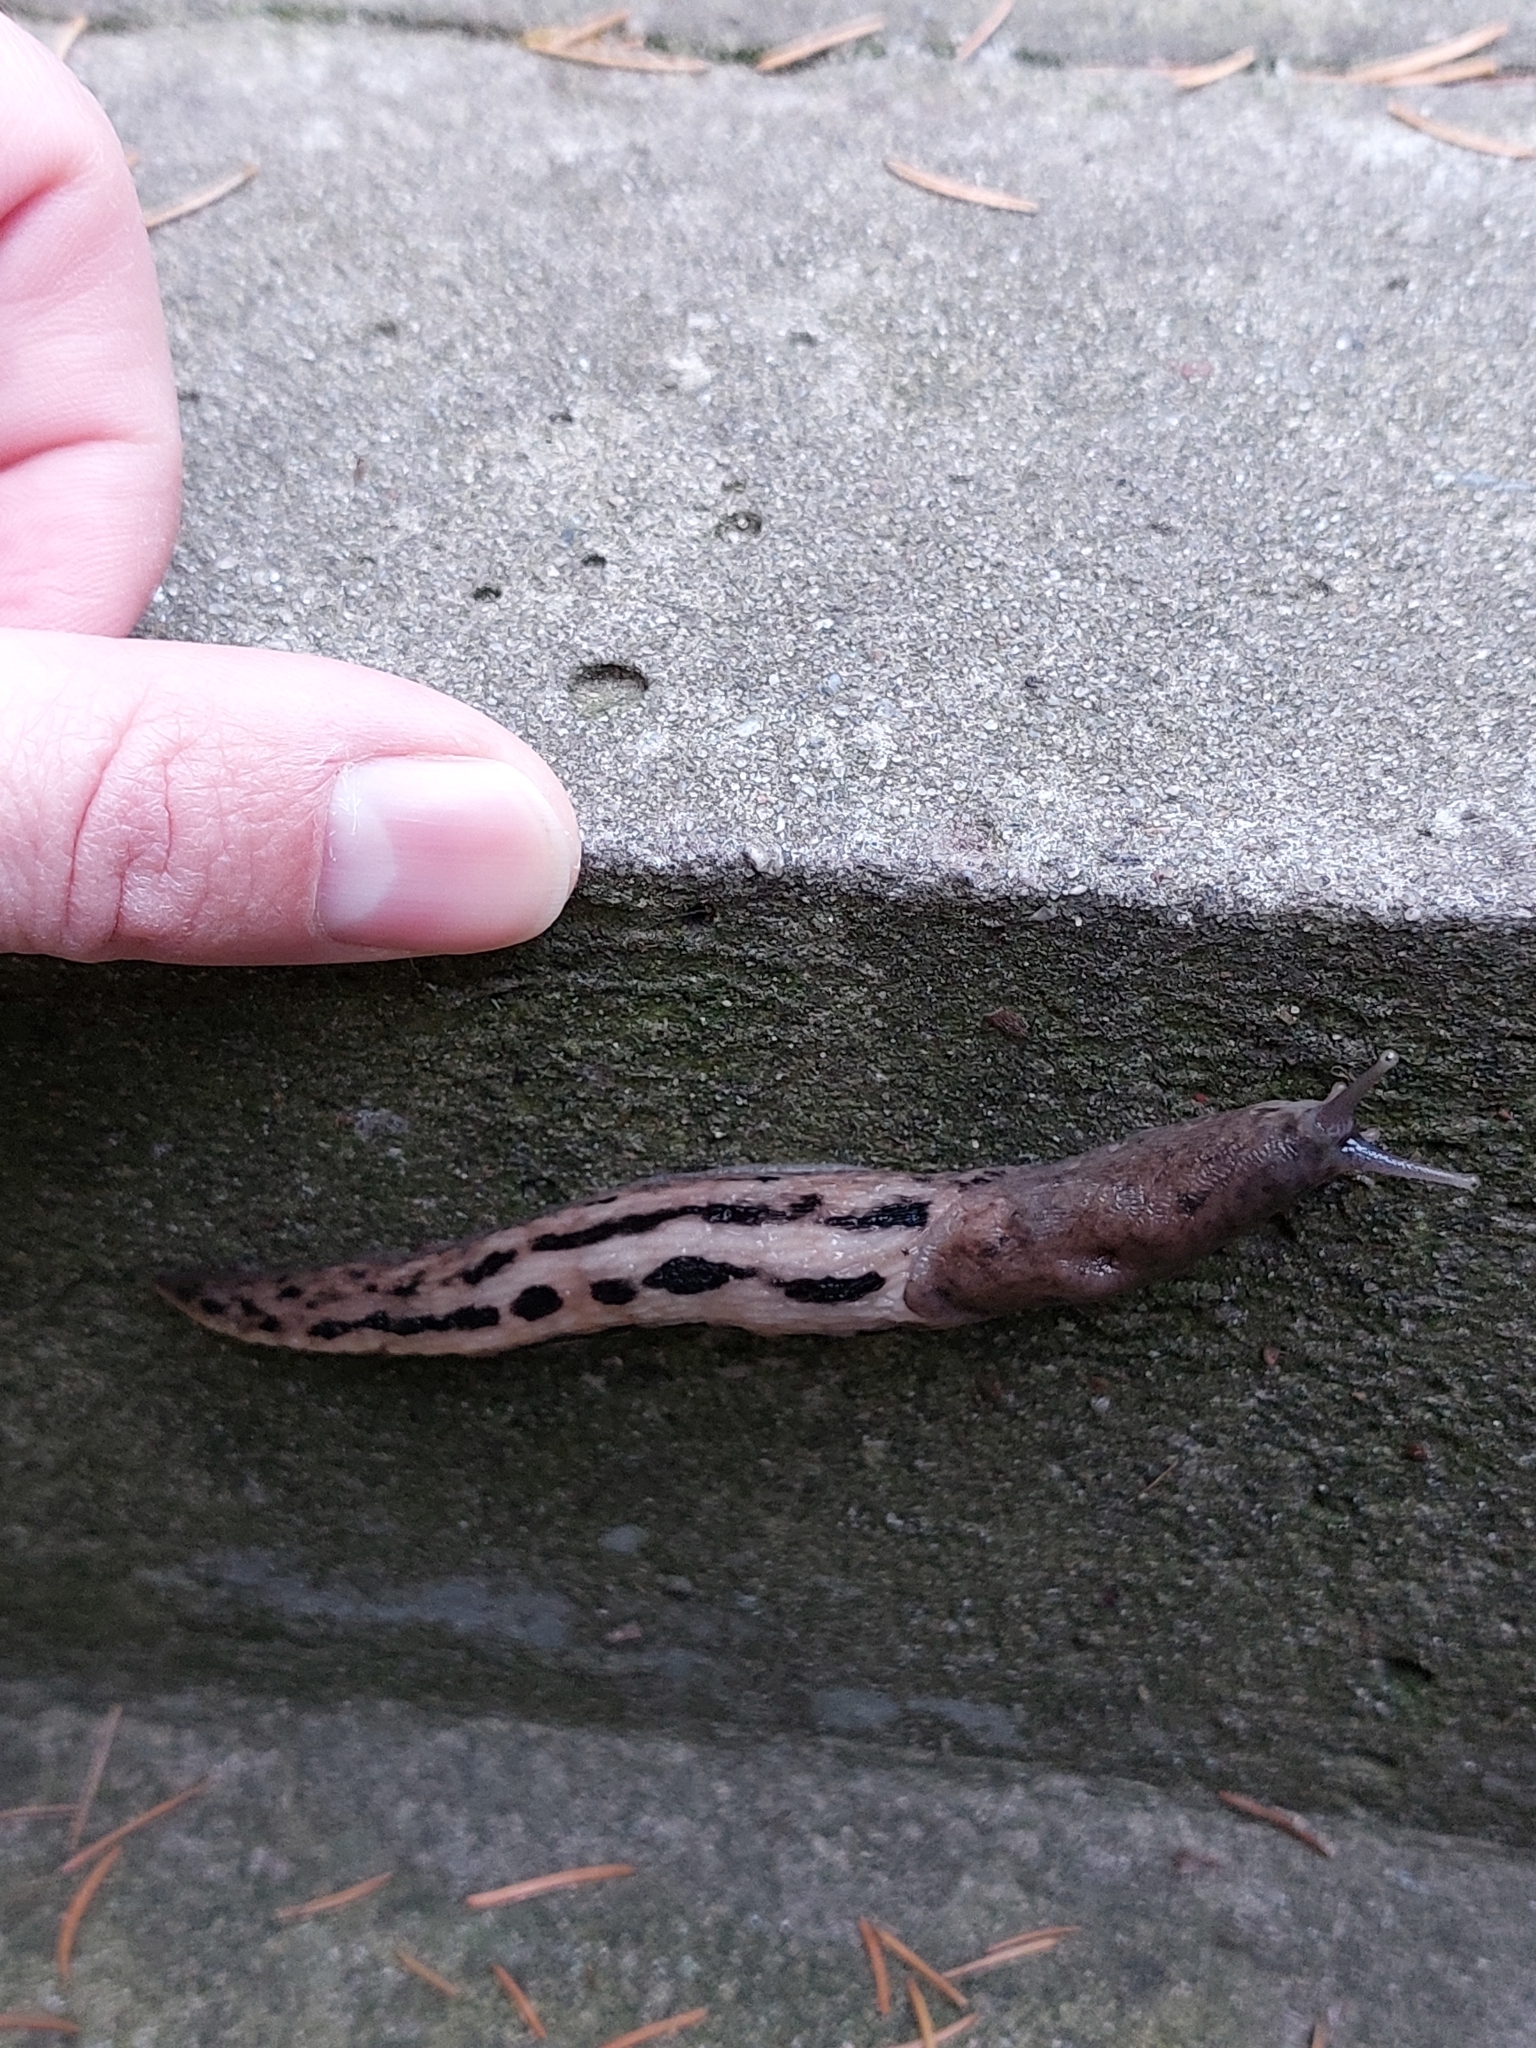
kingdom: Animalia
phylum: Mollusca
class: Gastropoda
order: Stylommatophora
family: Limacidae
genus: Limax
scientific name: Limax cinereoniger
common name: Ash-black slug
